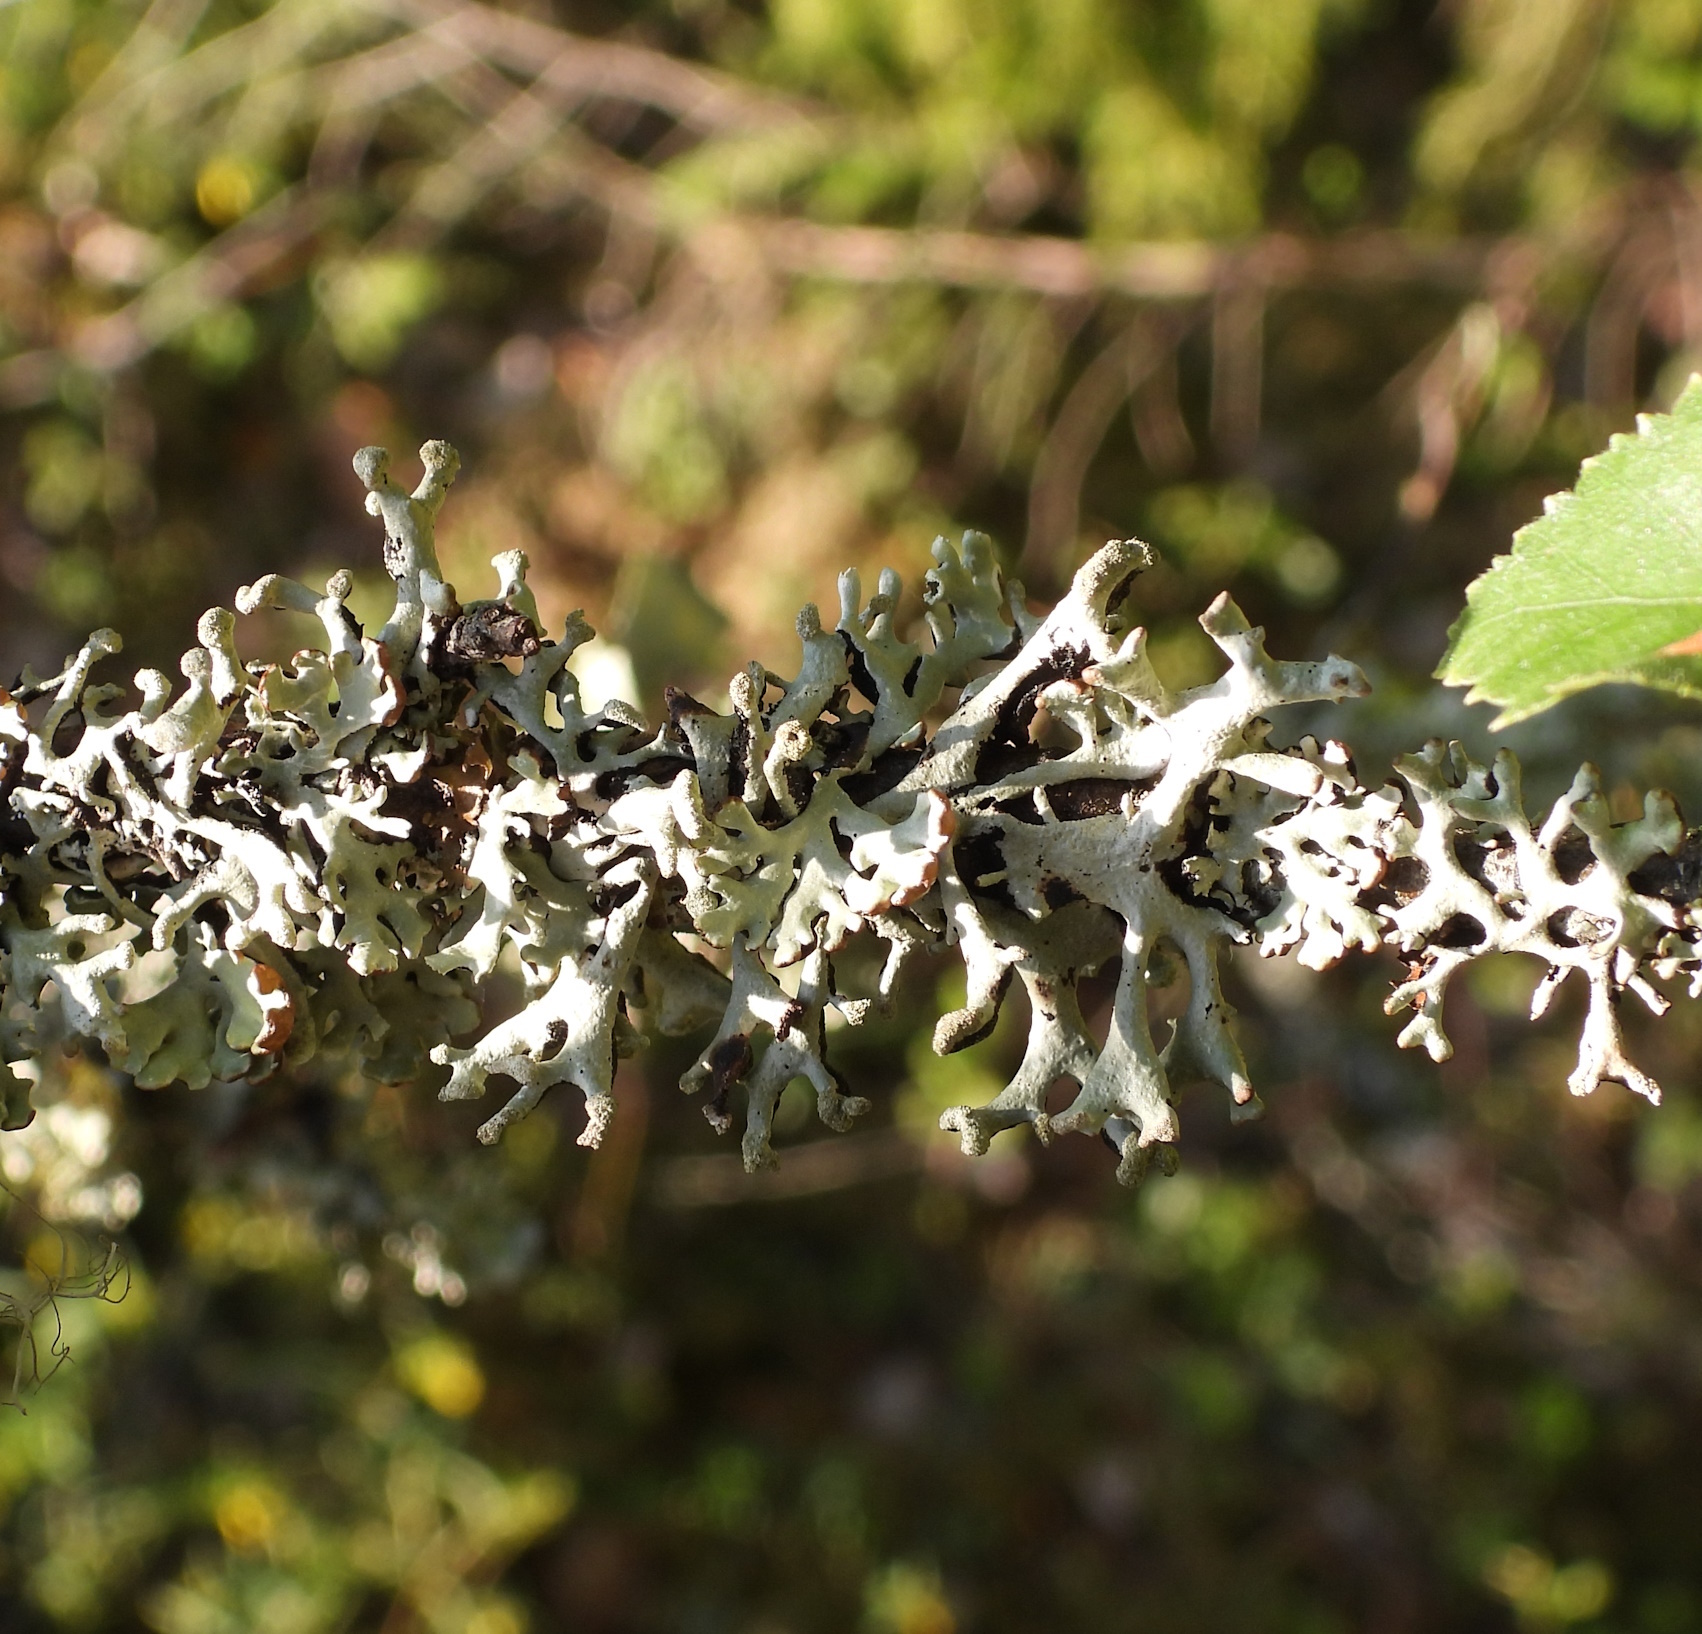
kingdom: Fungi
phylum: Ascomycota
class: Lecanoromycetes
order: Lecanorales
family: Parmeliaceae
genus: Hypogymnia
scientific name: Hypogymnia tubulosa
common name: Powder-headed tube lichen
